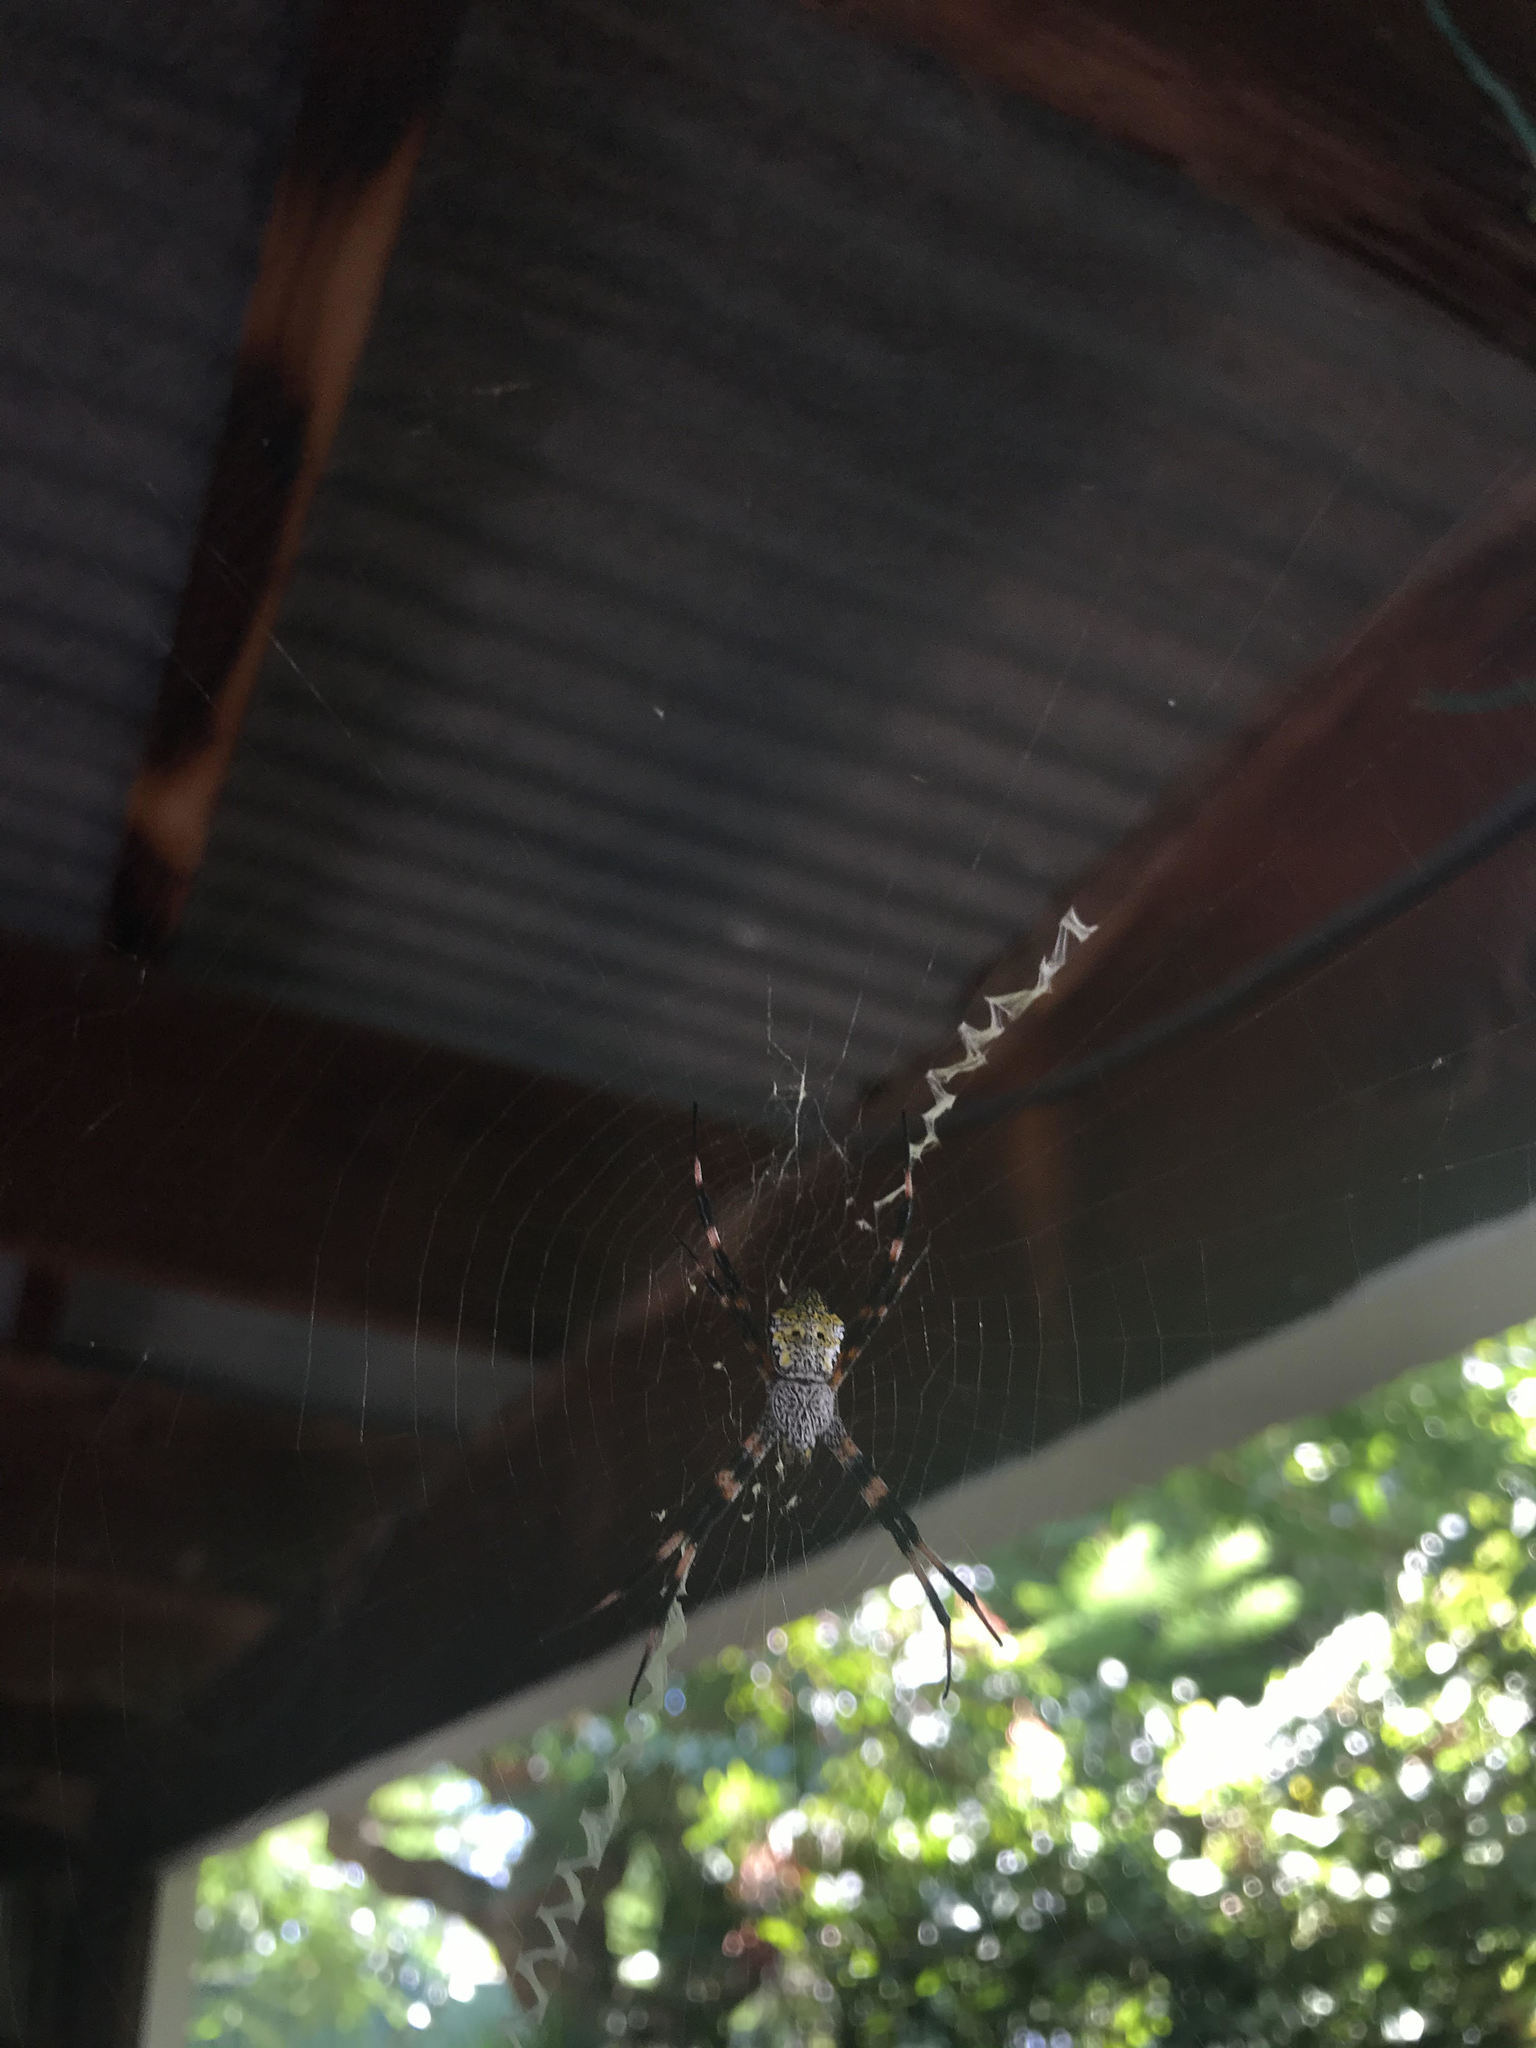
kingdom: Animalia
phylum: Arthropoda
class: Arachnida
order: Araneae
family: Araneidae
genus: Argiope
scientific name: Argiope appensa
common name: Garden spider
